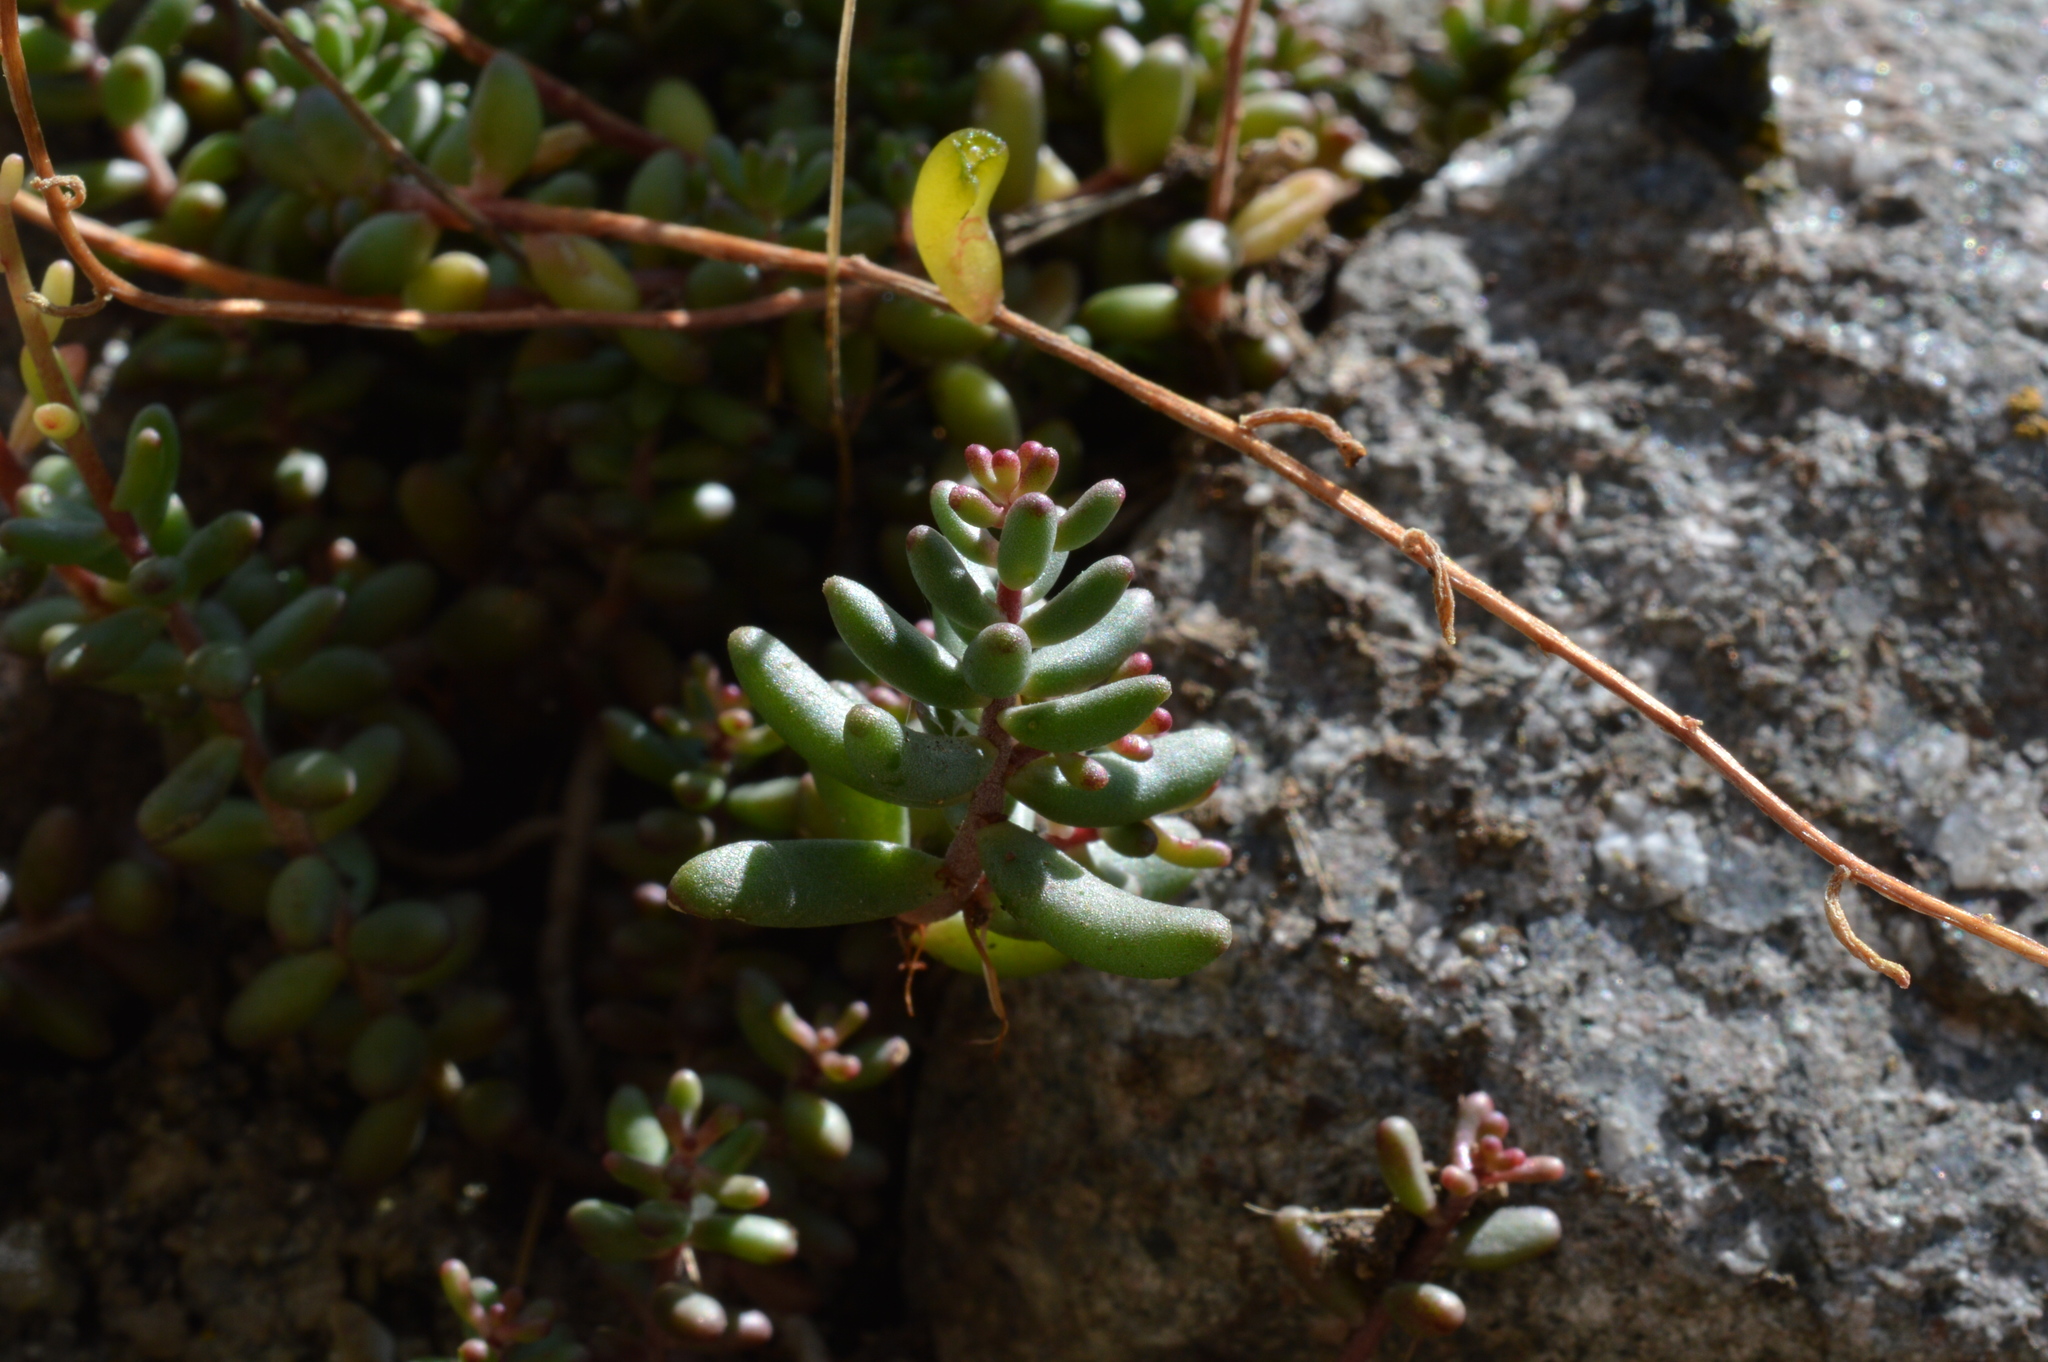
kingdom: Plantae
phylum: Tracheophyta
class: Magnoliopsida
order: Saxifragales
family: Crassulaceae
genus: Sedum
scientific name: Sedum album
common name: White stonecrop
